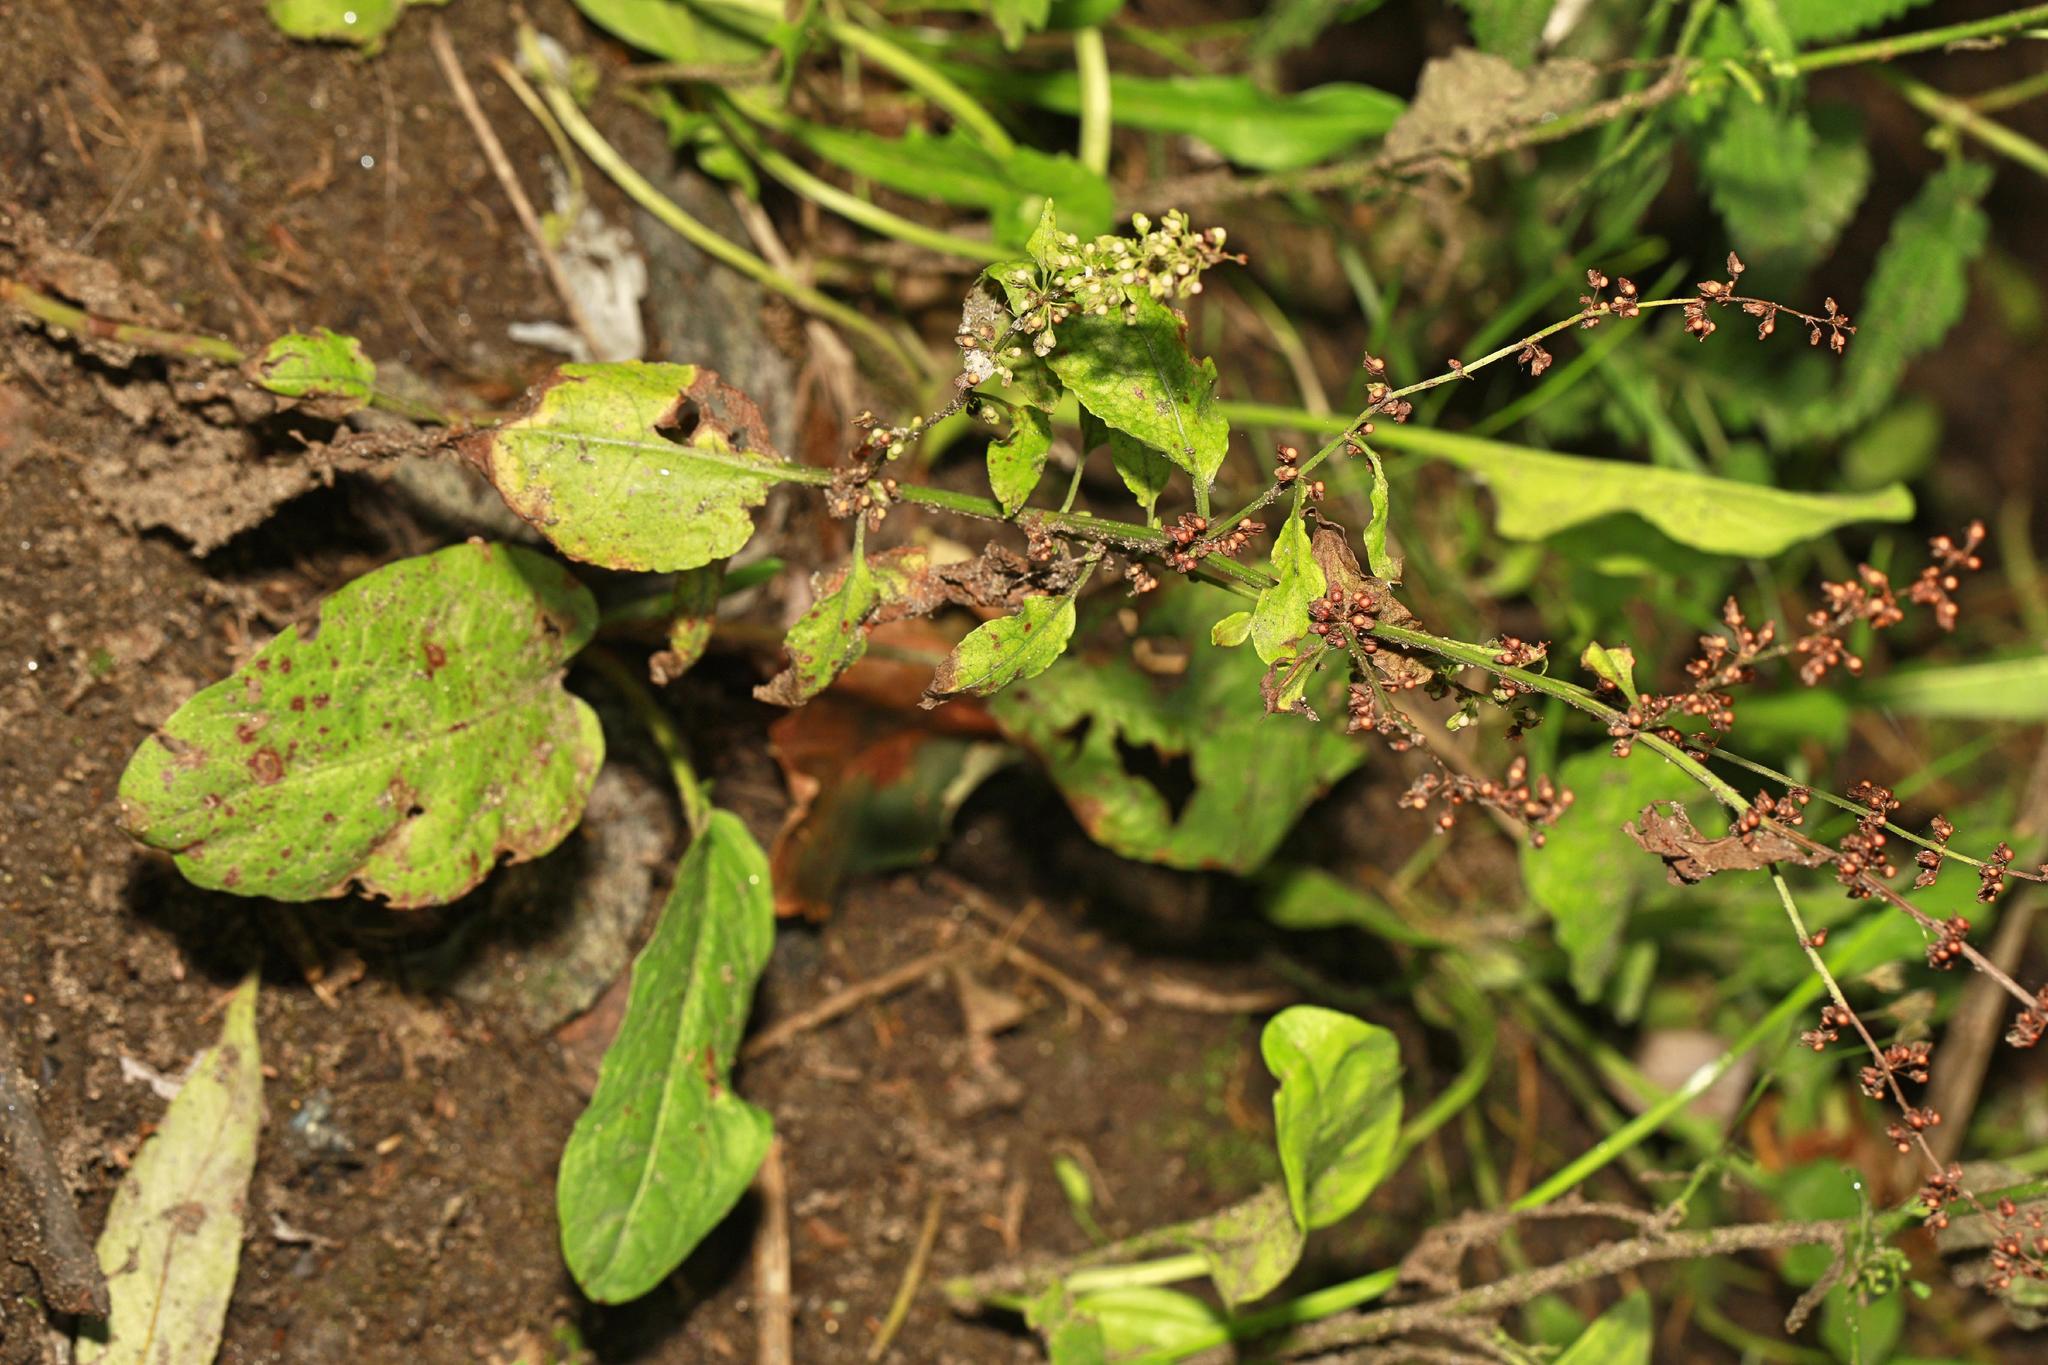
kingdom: Plantae
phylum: Tracheophyta
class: Magnoliopsida
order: Caryophyllales
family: Polygonaceae
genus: Rumex
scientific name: Rumex conglomeratus
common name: Clustered dock
